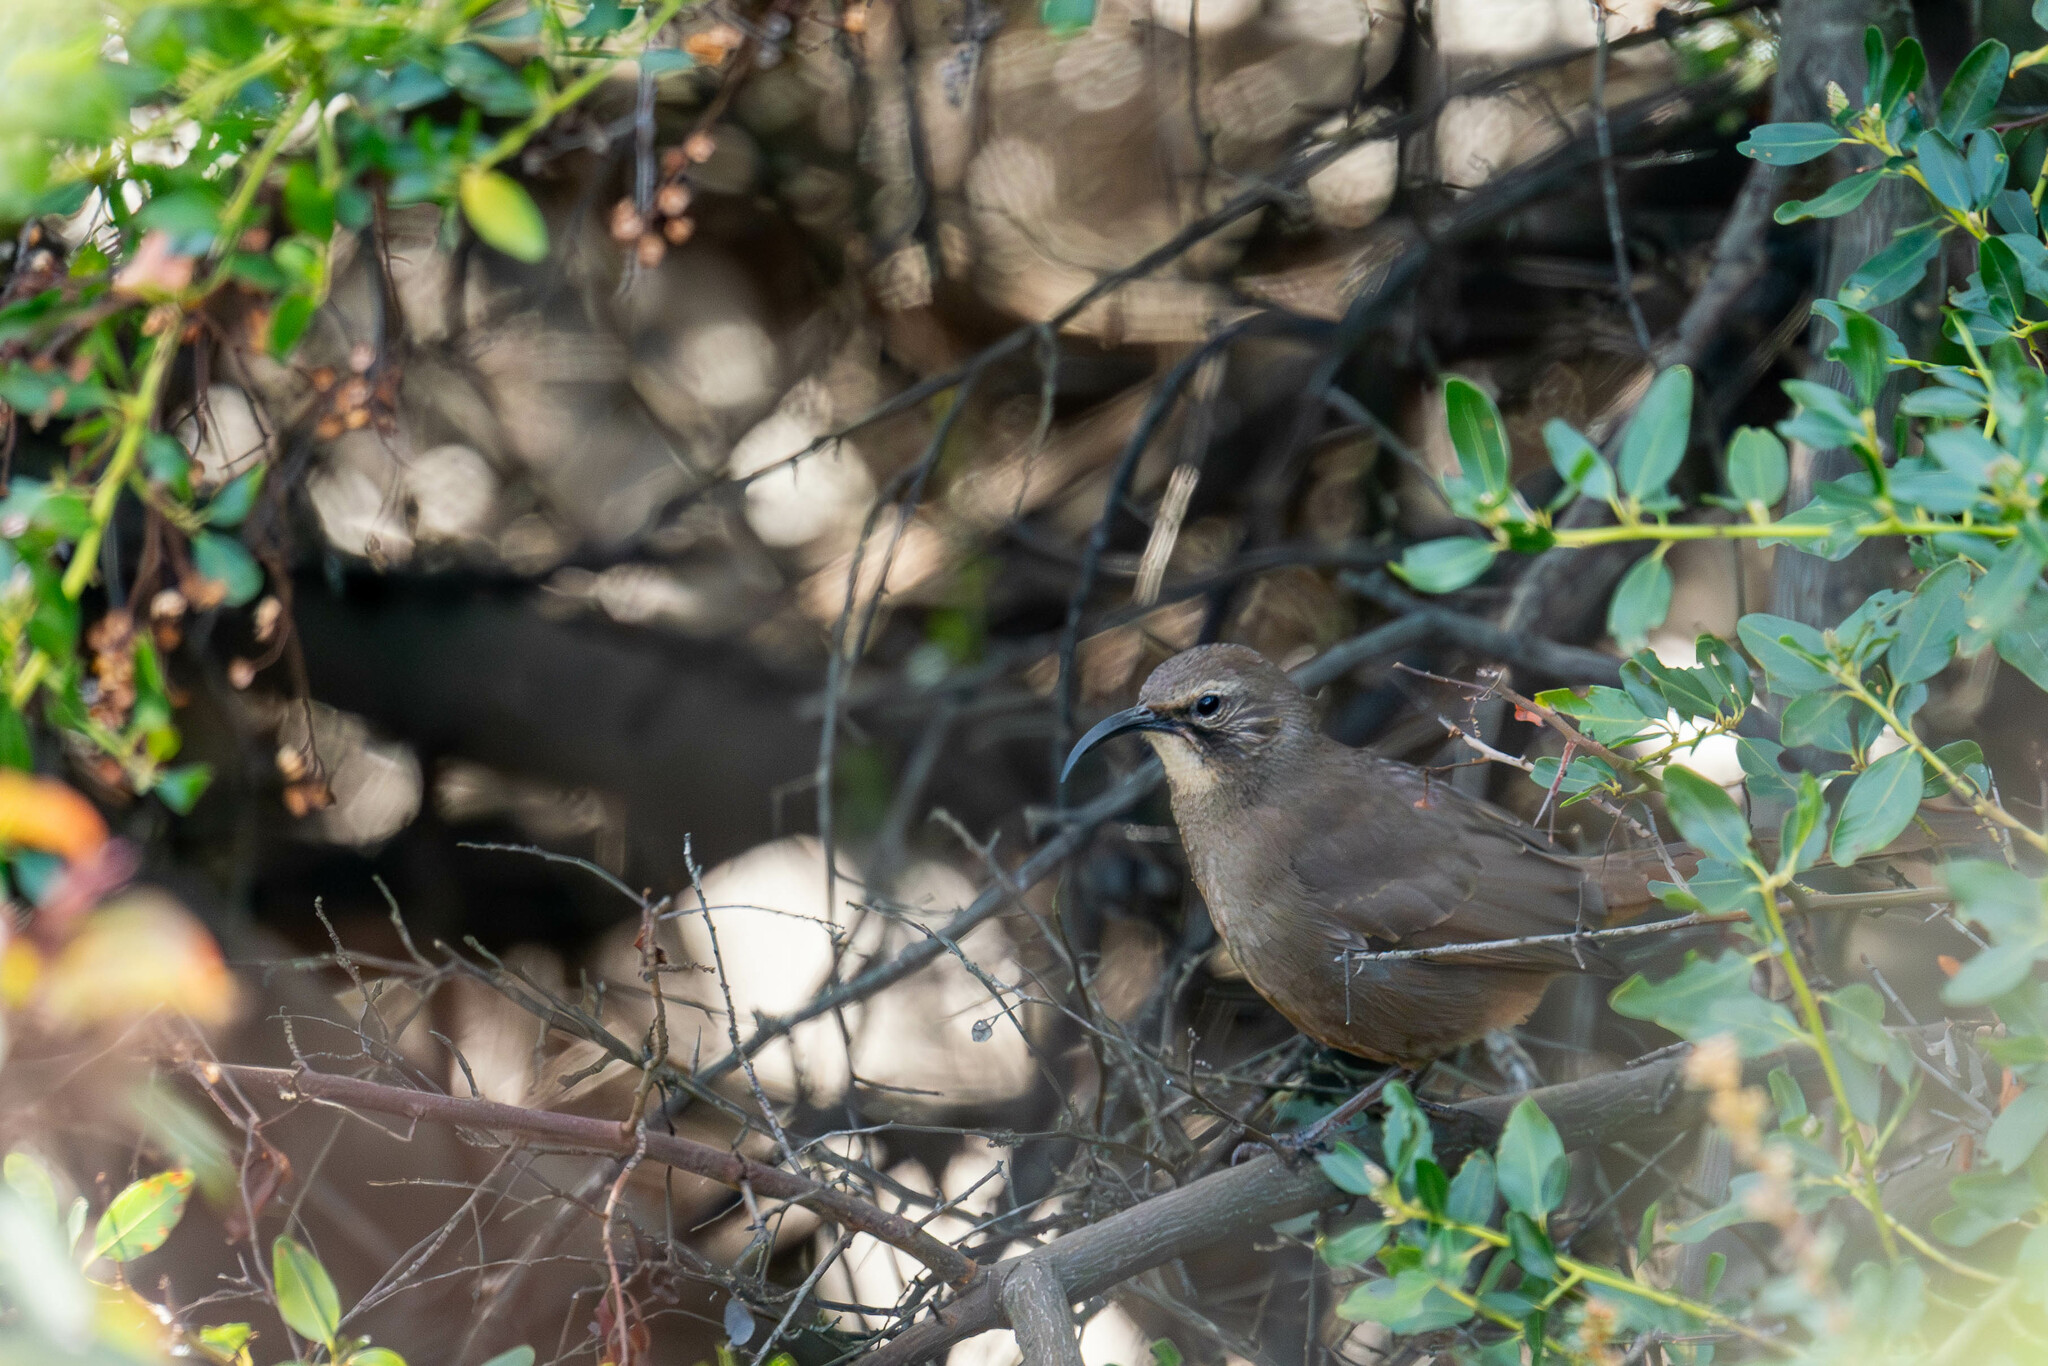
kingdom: Animalia
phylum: Chordata
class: Aves
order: Passeriformes
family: Mimidae
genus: Toxostoma
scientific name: Toxostoma redivivum
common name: California thrasher
